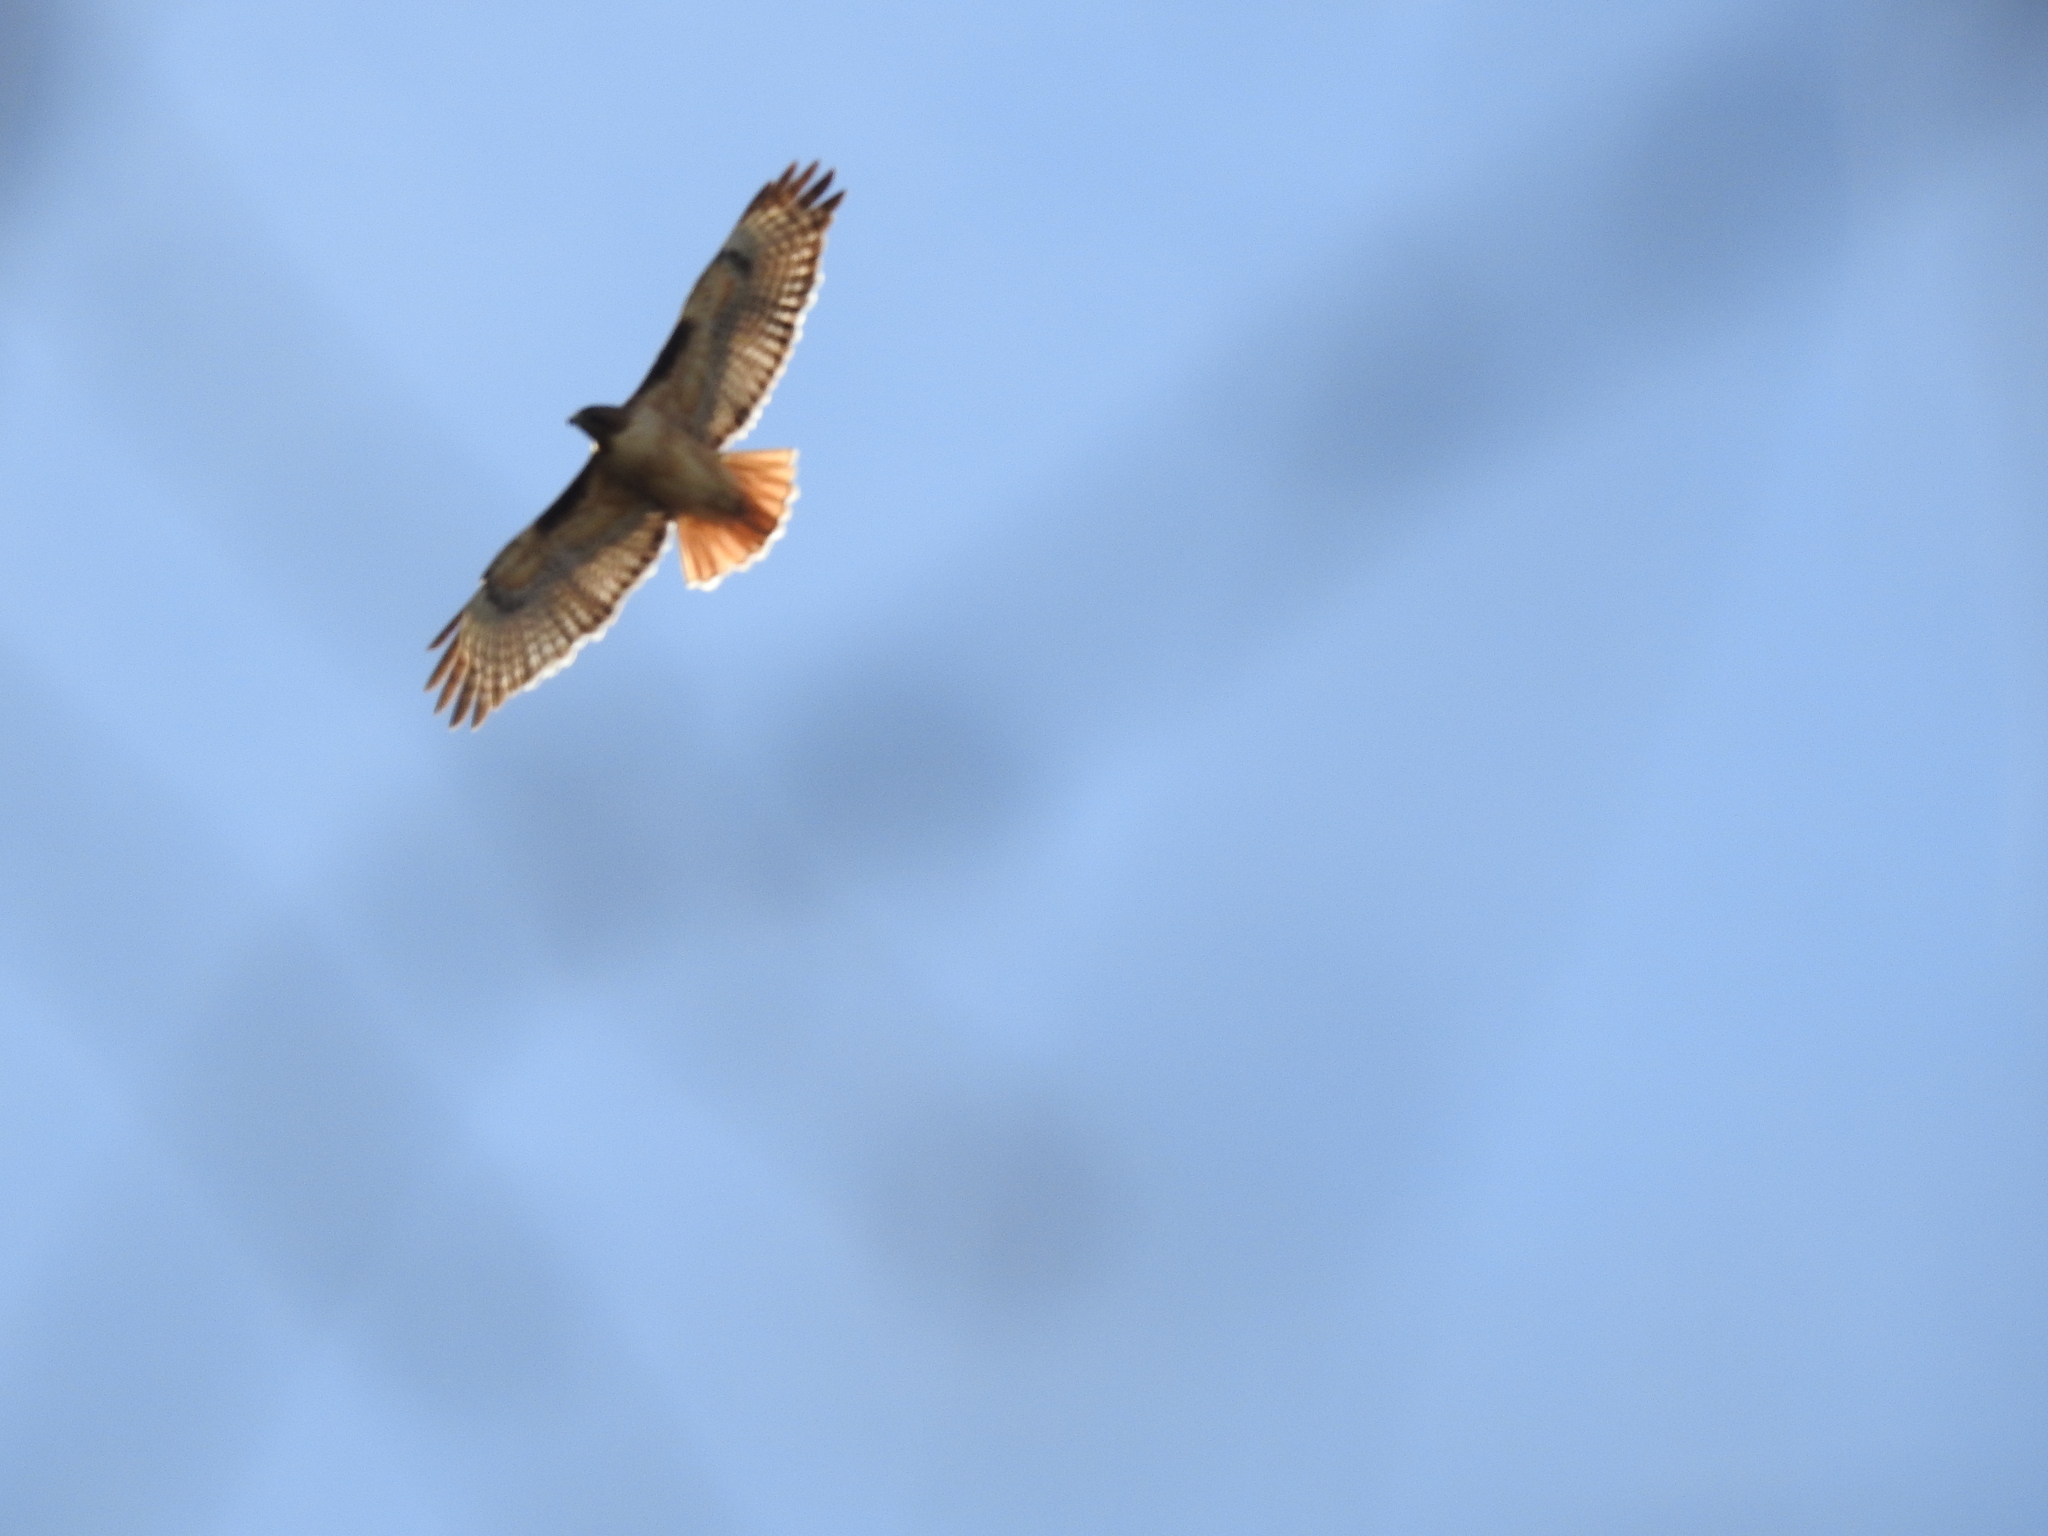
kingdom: Animalia
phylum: Chordata
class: Aves
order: Accipitriformes
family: Accipitridae
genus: Buteo
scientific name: Buteo jamaicensis
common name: Red-tailed hawk
